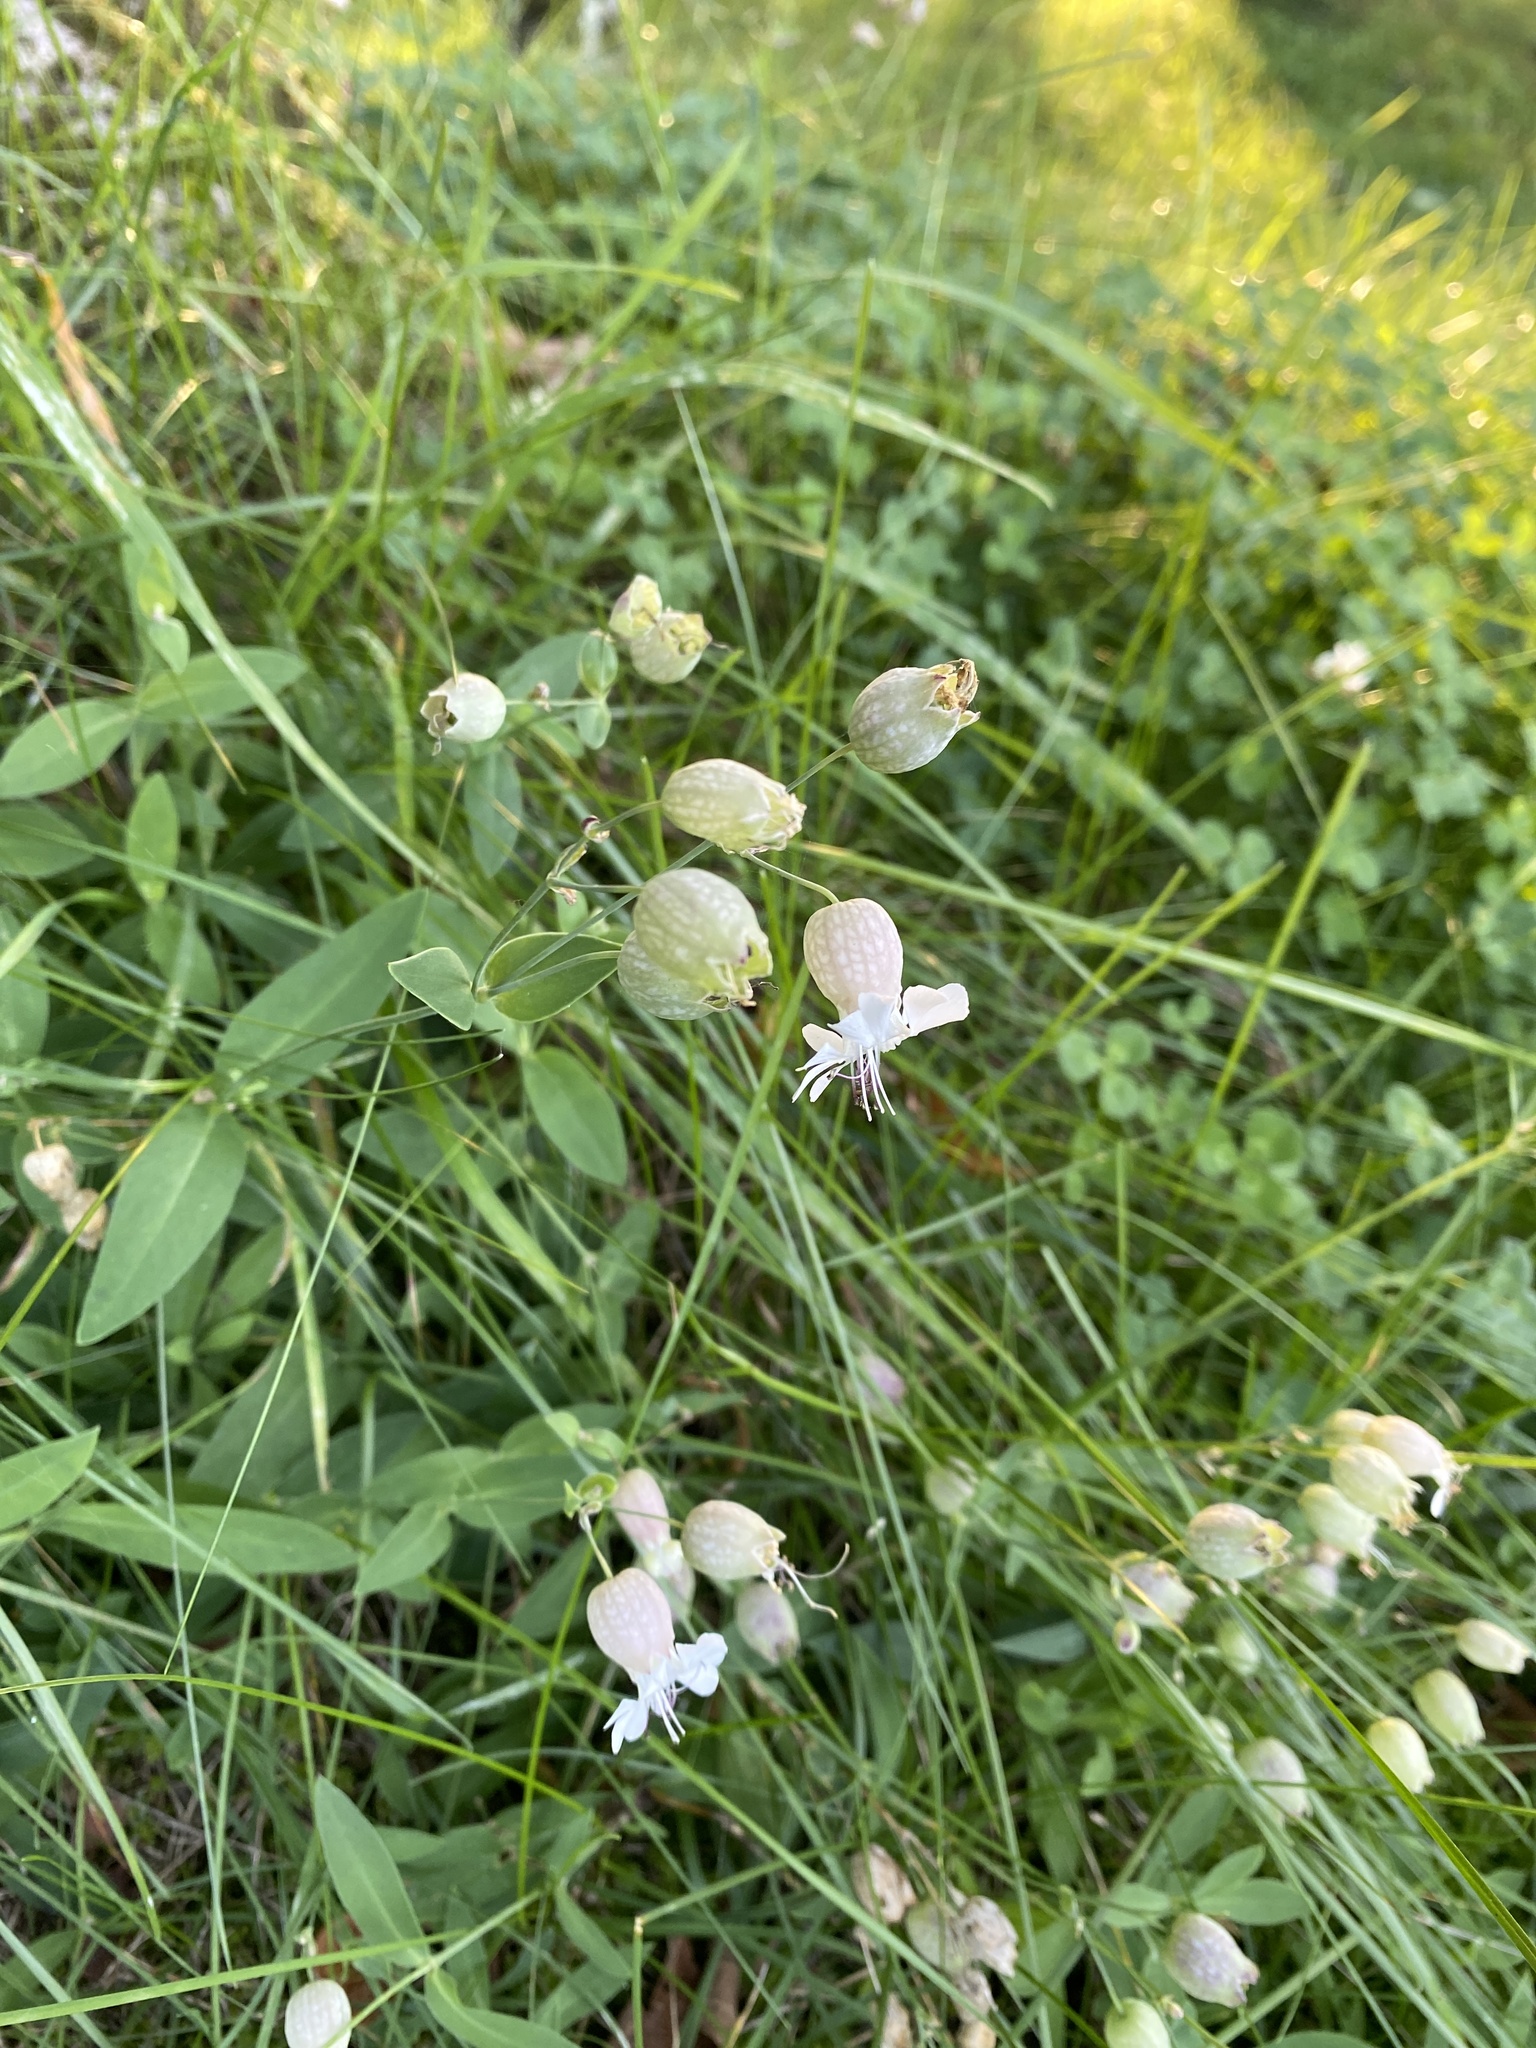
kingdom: Plantae
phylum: Tracheophyta
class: Magnoliopsida
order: Caryophyllales
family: Caryophyllaceae
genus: Silene
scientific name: Silene vulgaris
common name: Bladder campion
